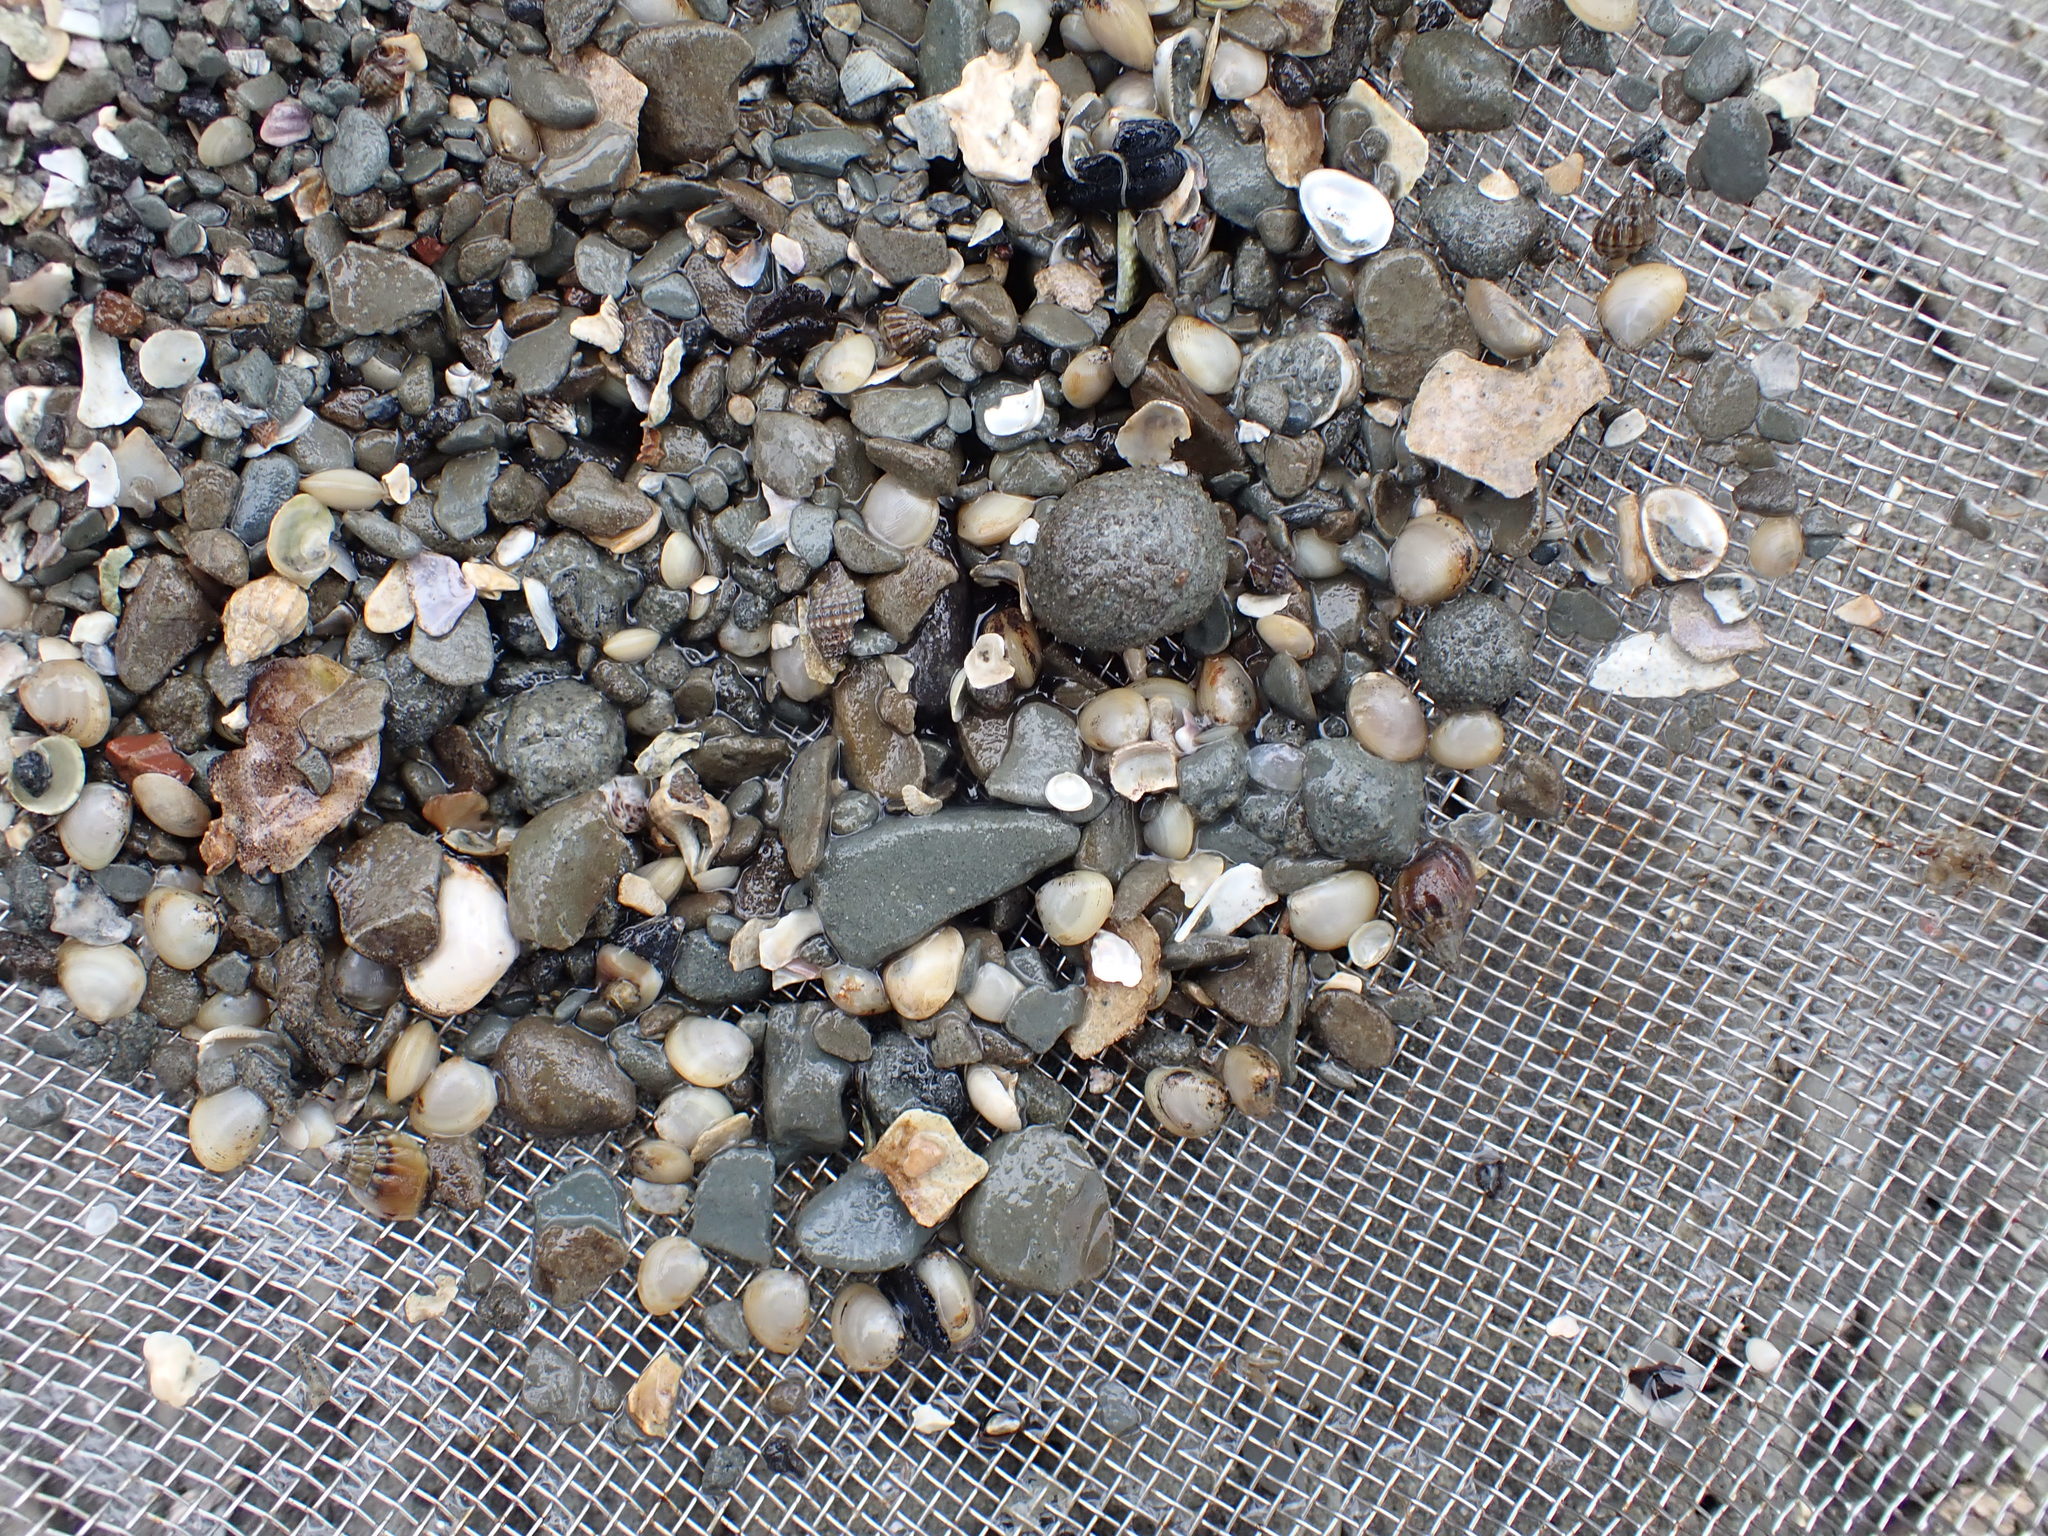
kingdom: Animalia
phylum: Mollusca
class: Bivalvia
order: Nuculida
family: Nuculidae
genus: Linucula
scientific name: Linucula hartvigiana
